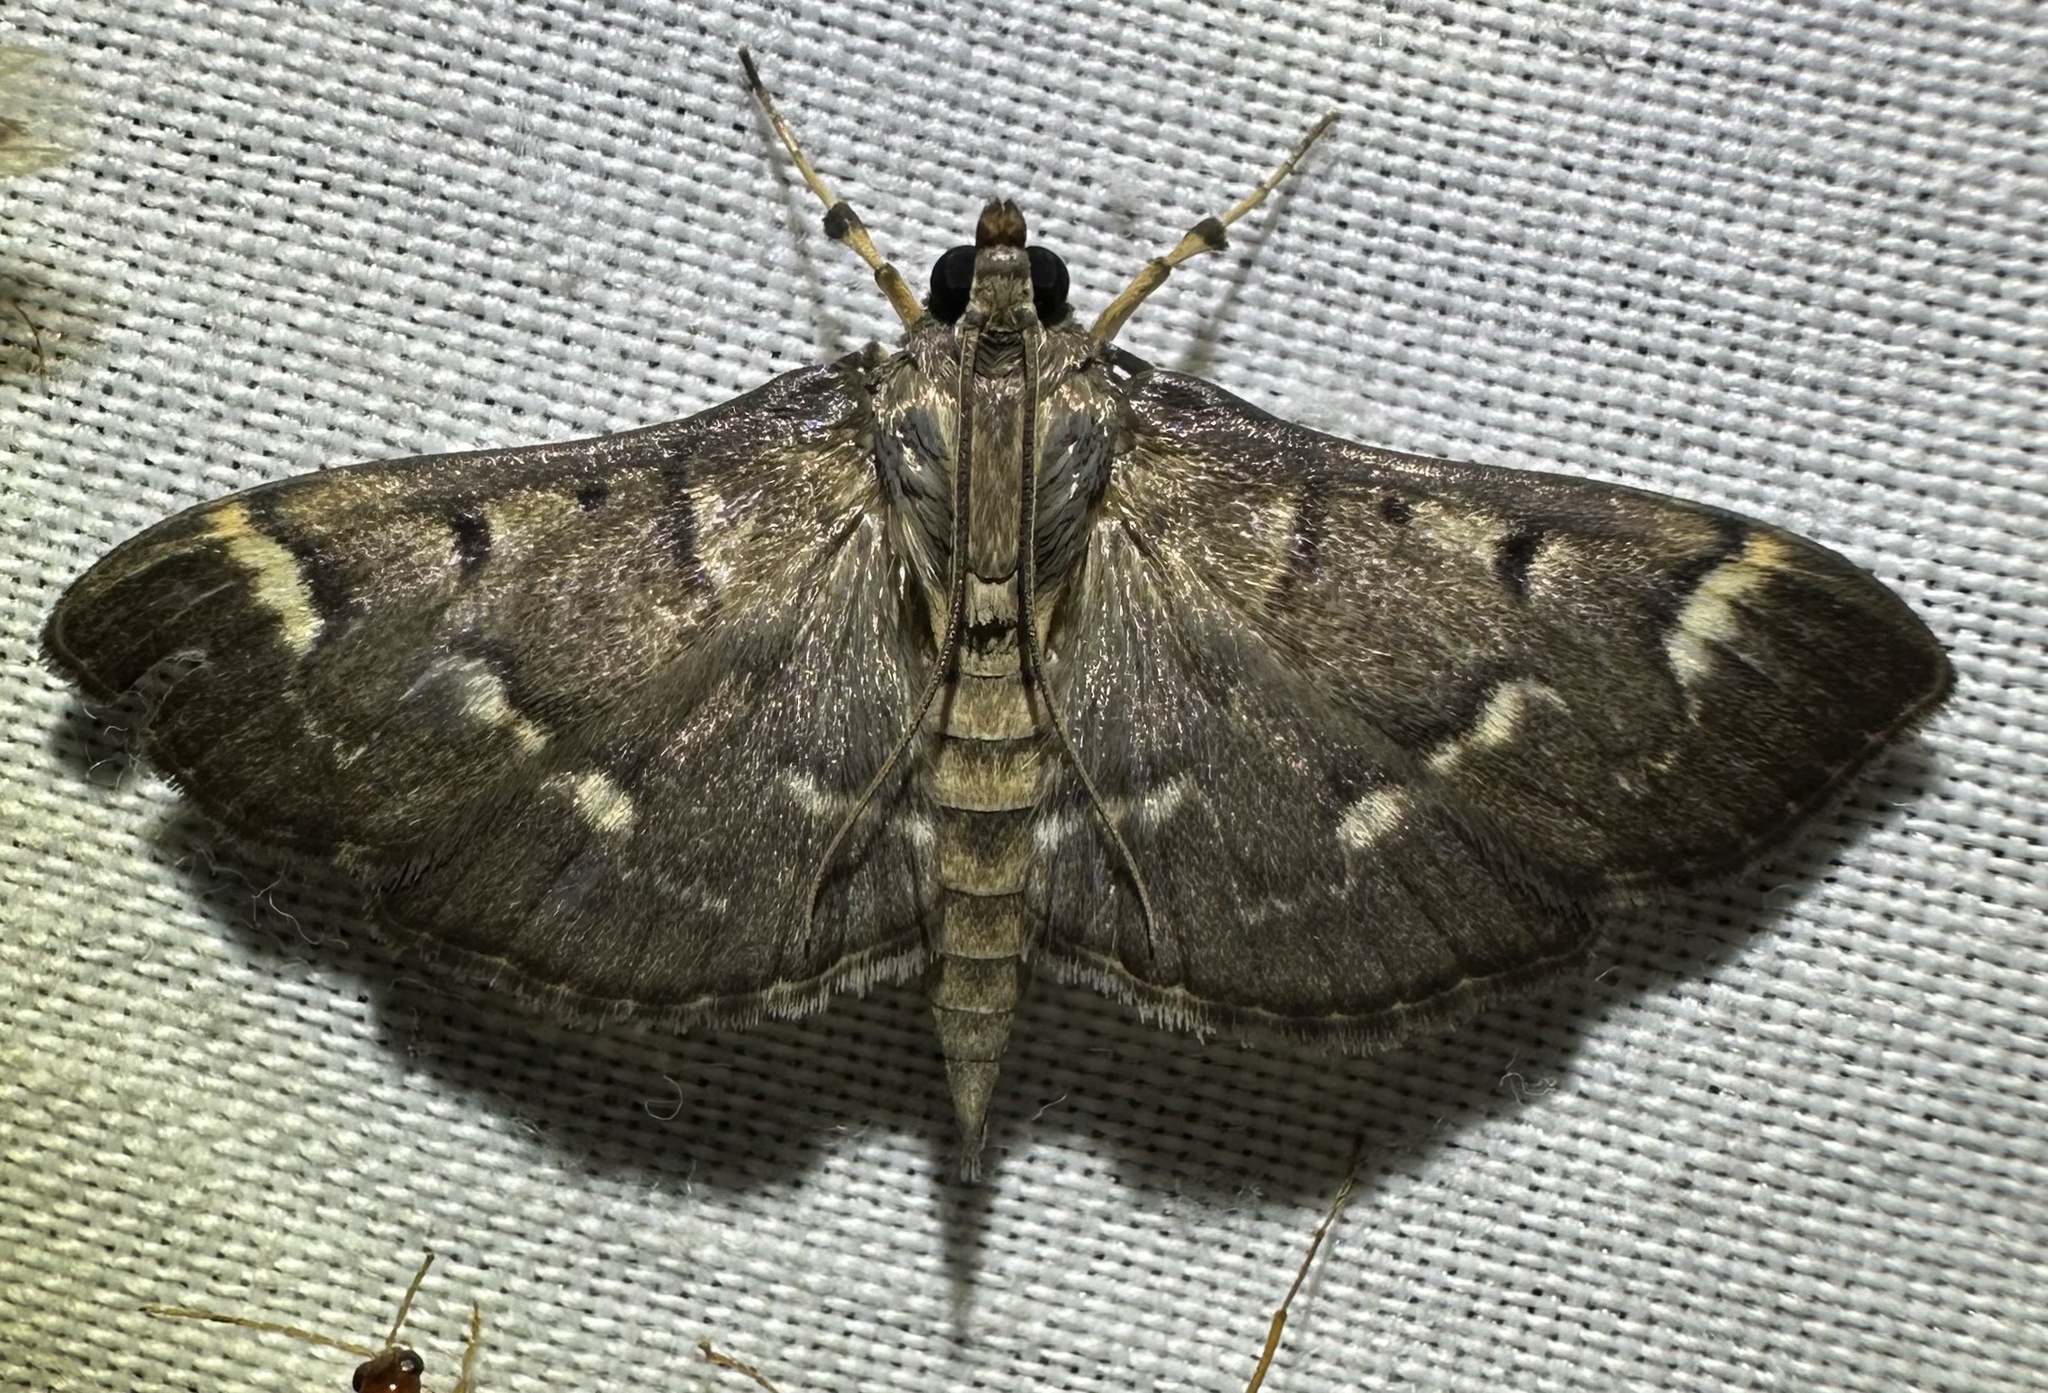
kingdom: Animalia
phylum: Arthropoda
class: Insecta
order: Lepidoptera
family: Crambidae
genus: Syllepte
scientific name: Syllepte orbiferalis
